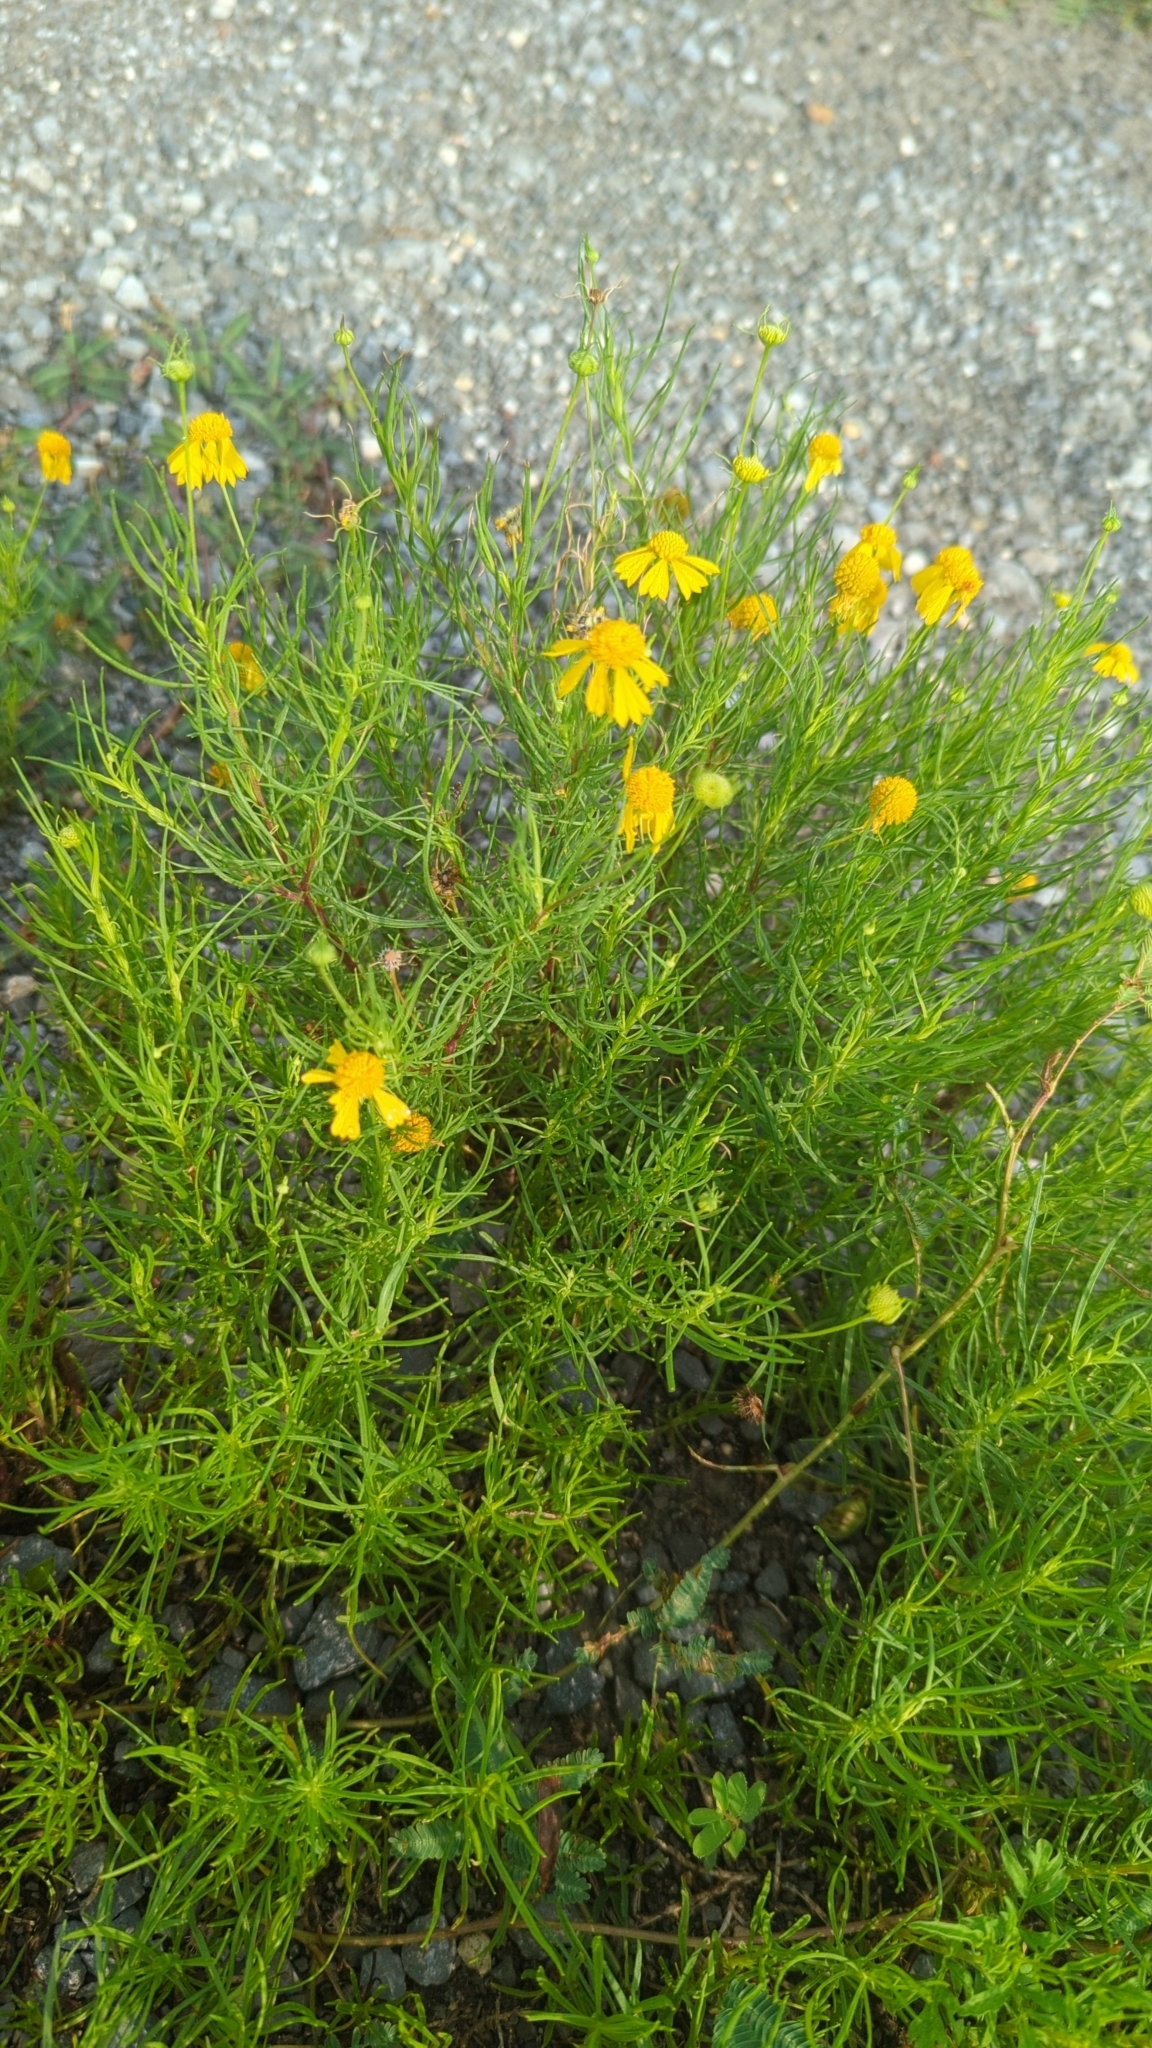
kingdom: Plantae
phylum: Tracheophyta
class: Magnoliopsida
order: Asterales
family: Asteraceae
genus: Helenium
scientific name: Helenium amarum
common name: Bitter sneezeweed
